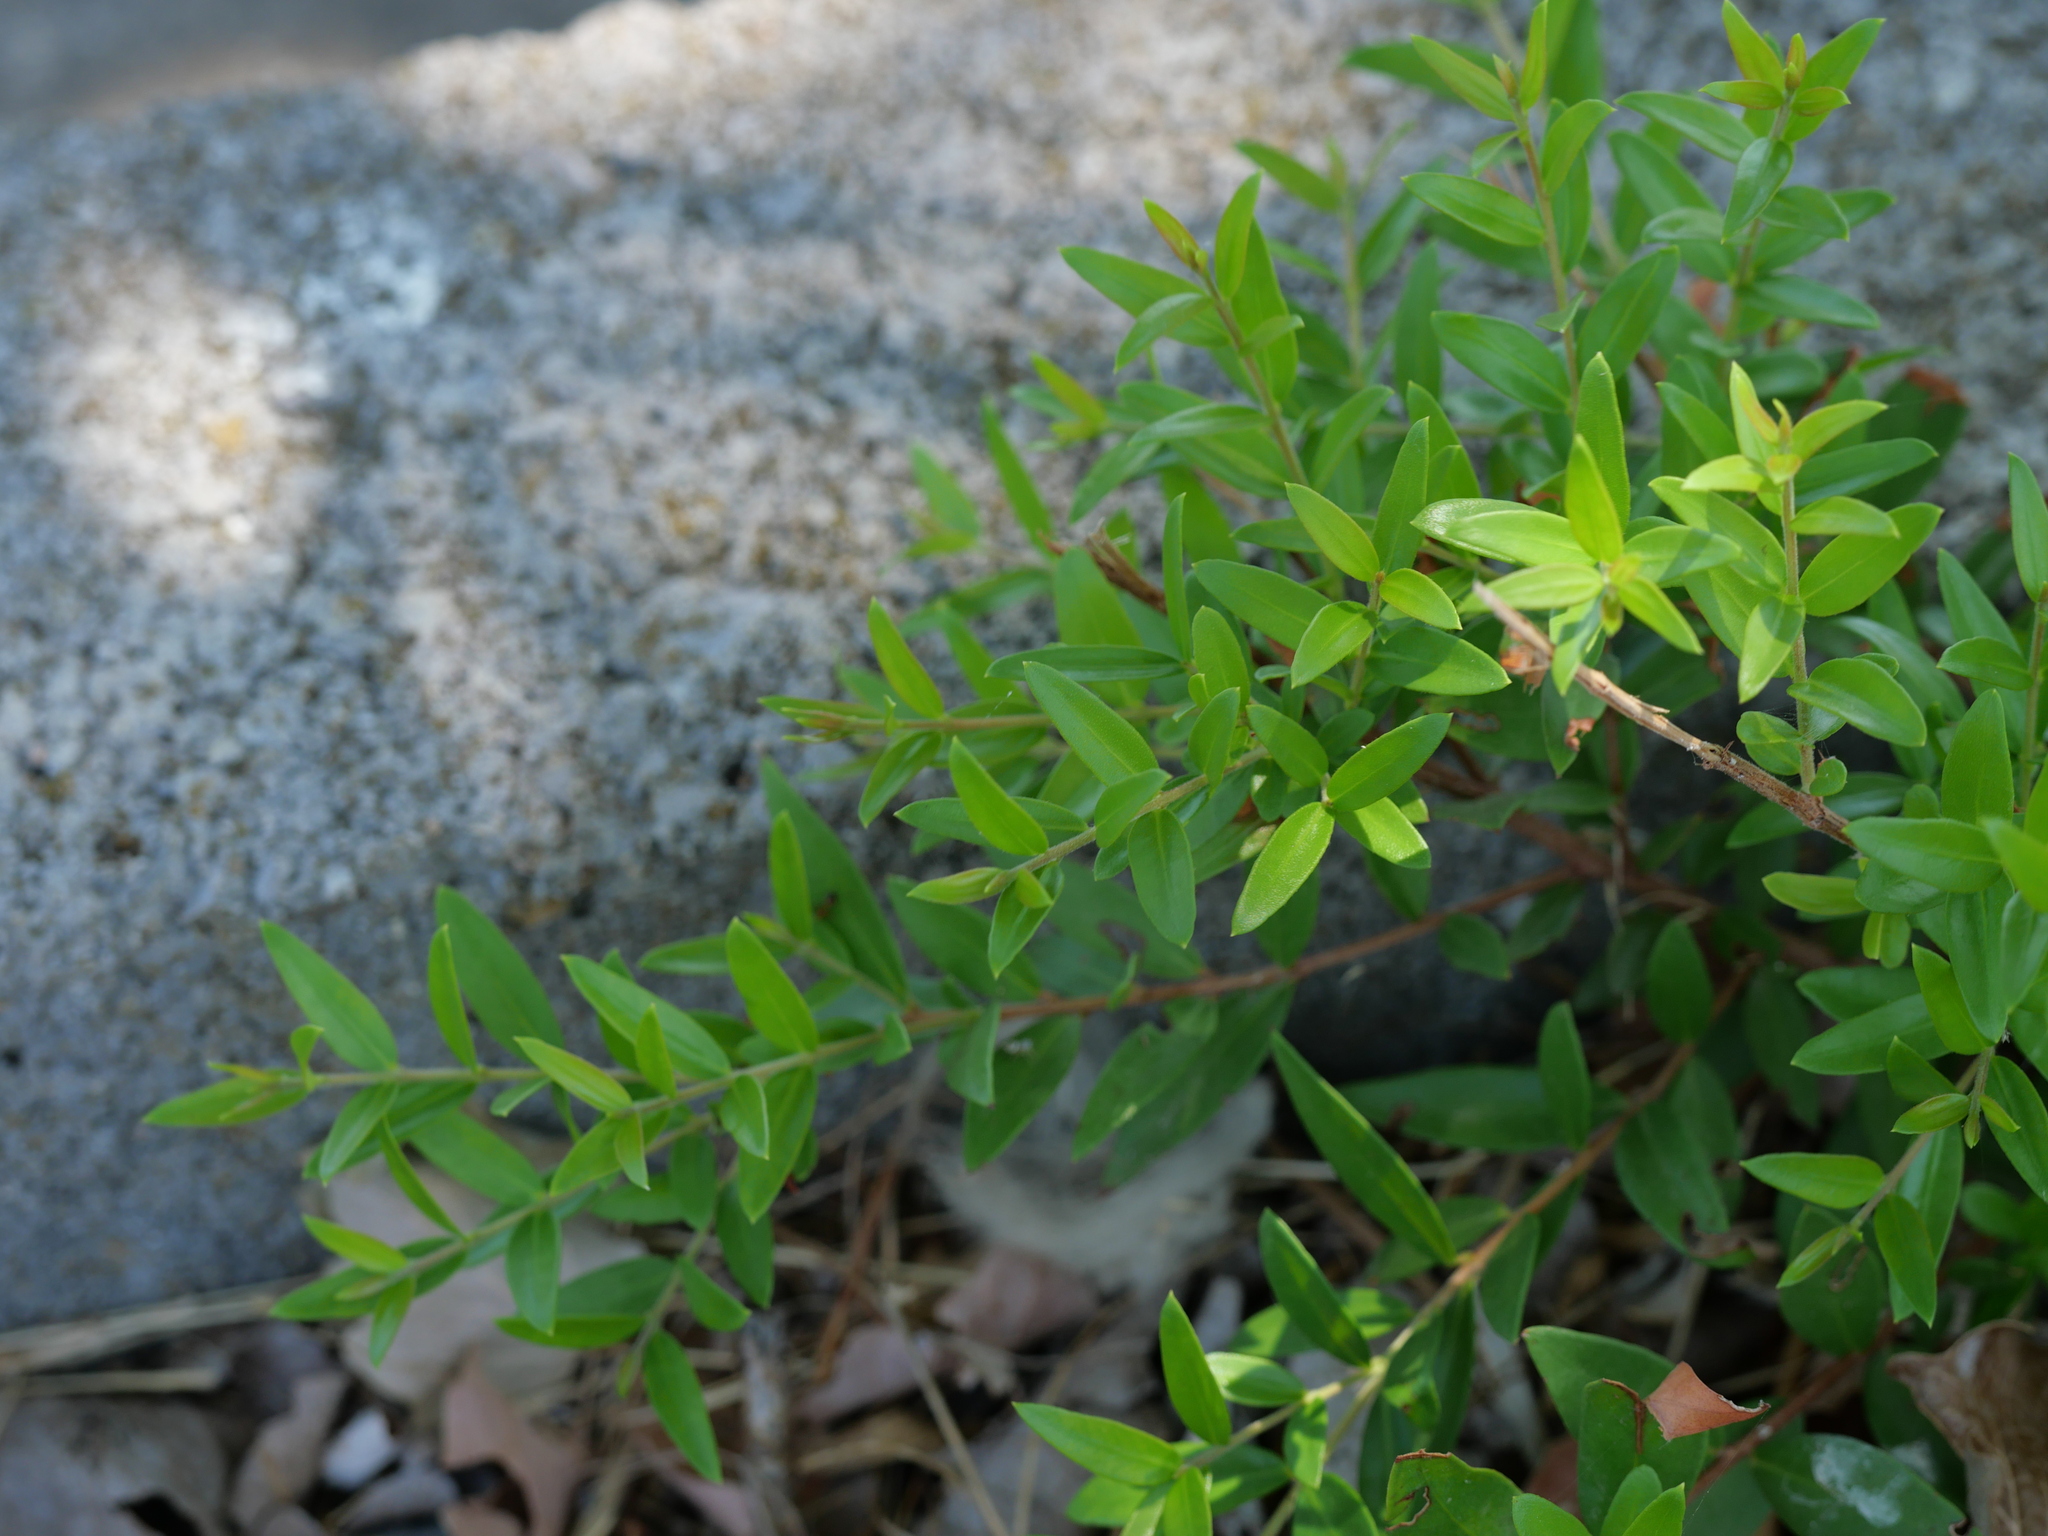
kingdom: Plantae
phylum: Tracheophyta
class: Magnoliopsida
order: Myrtales
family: Myrtaceae
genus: Myrtus
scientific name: Myrtus communis
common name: Myrtle
